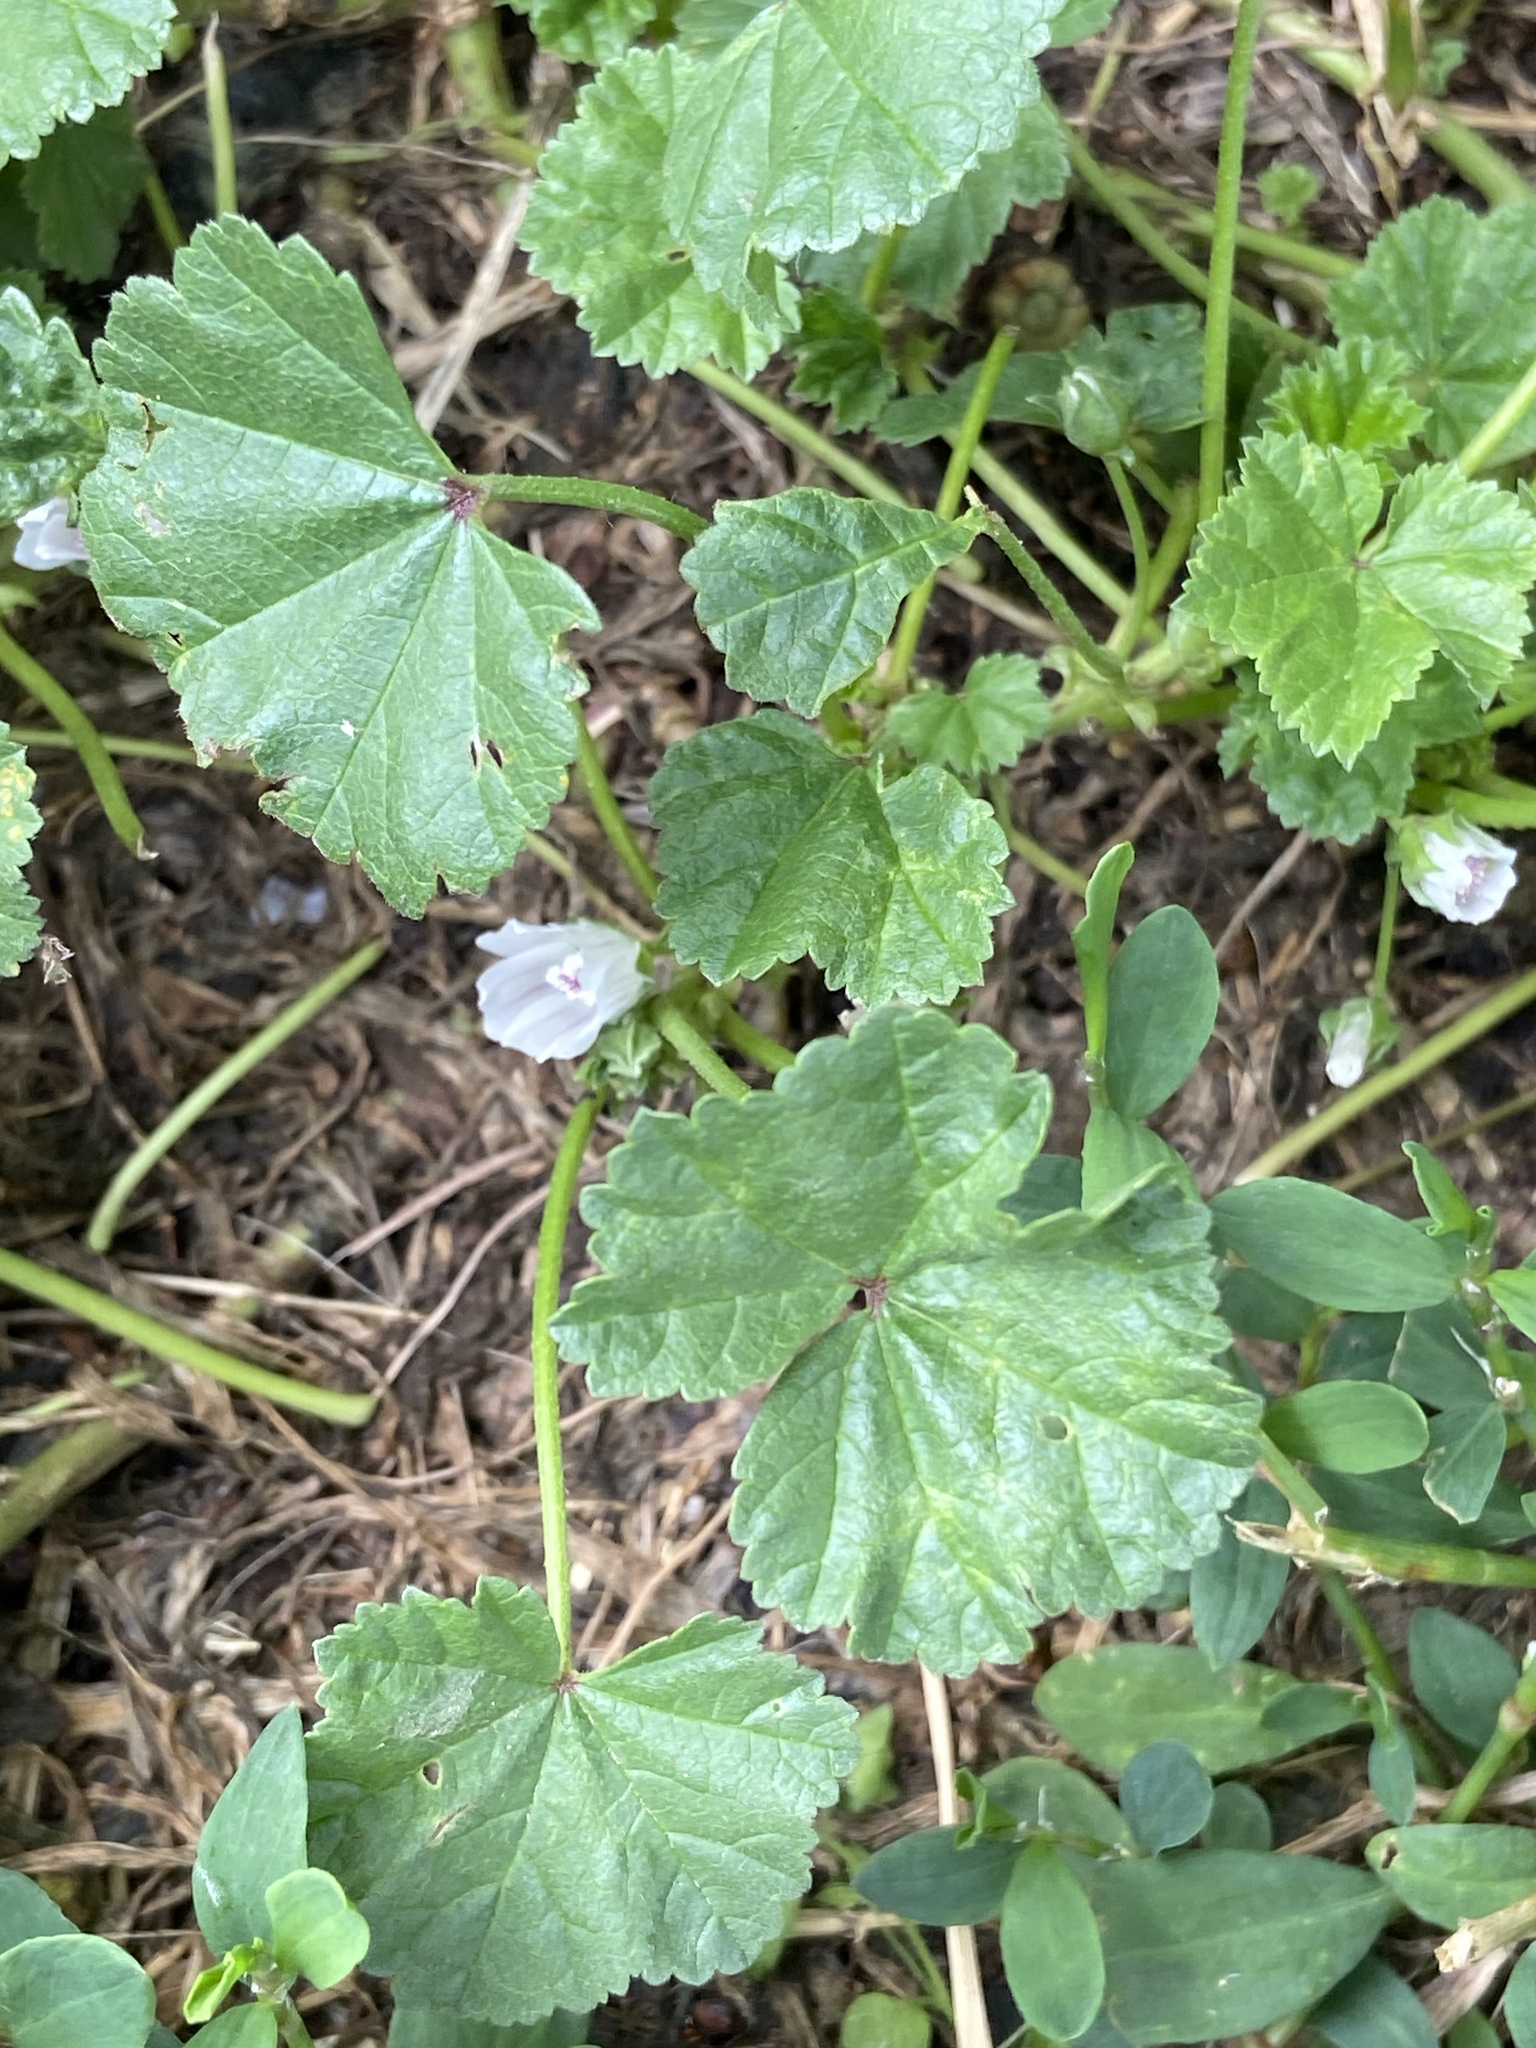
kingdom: Plantae
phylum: Tracheophyta
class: Magnoliopsida
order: Malvales
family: Malvaceae
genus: Malva
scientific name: Malva neglecta
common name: Common mallow
